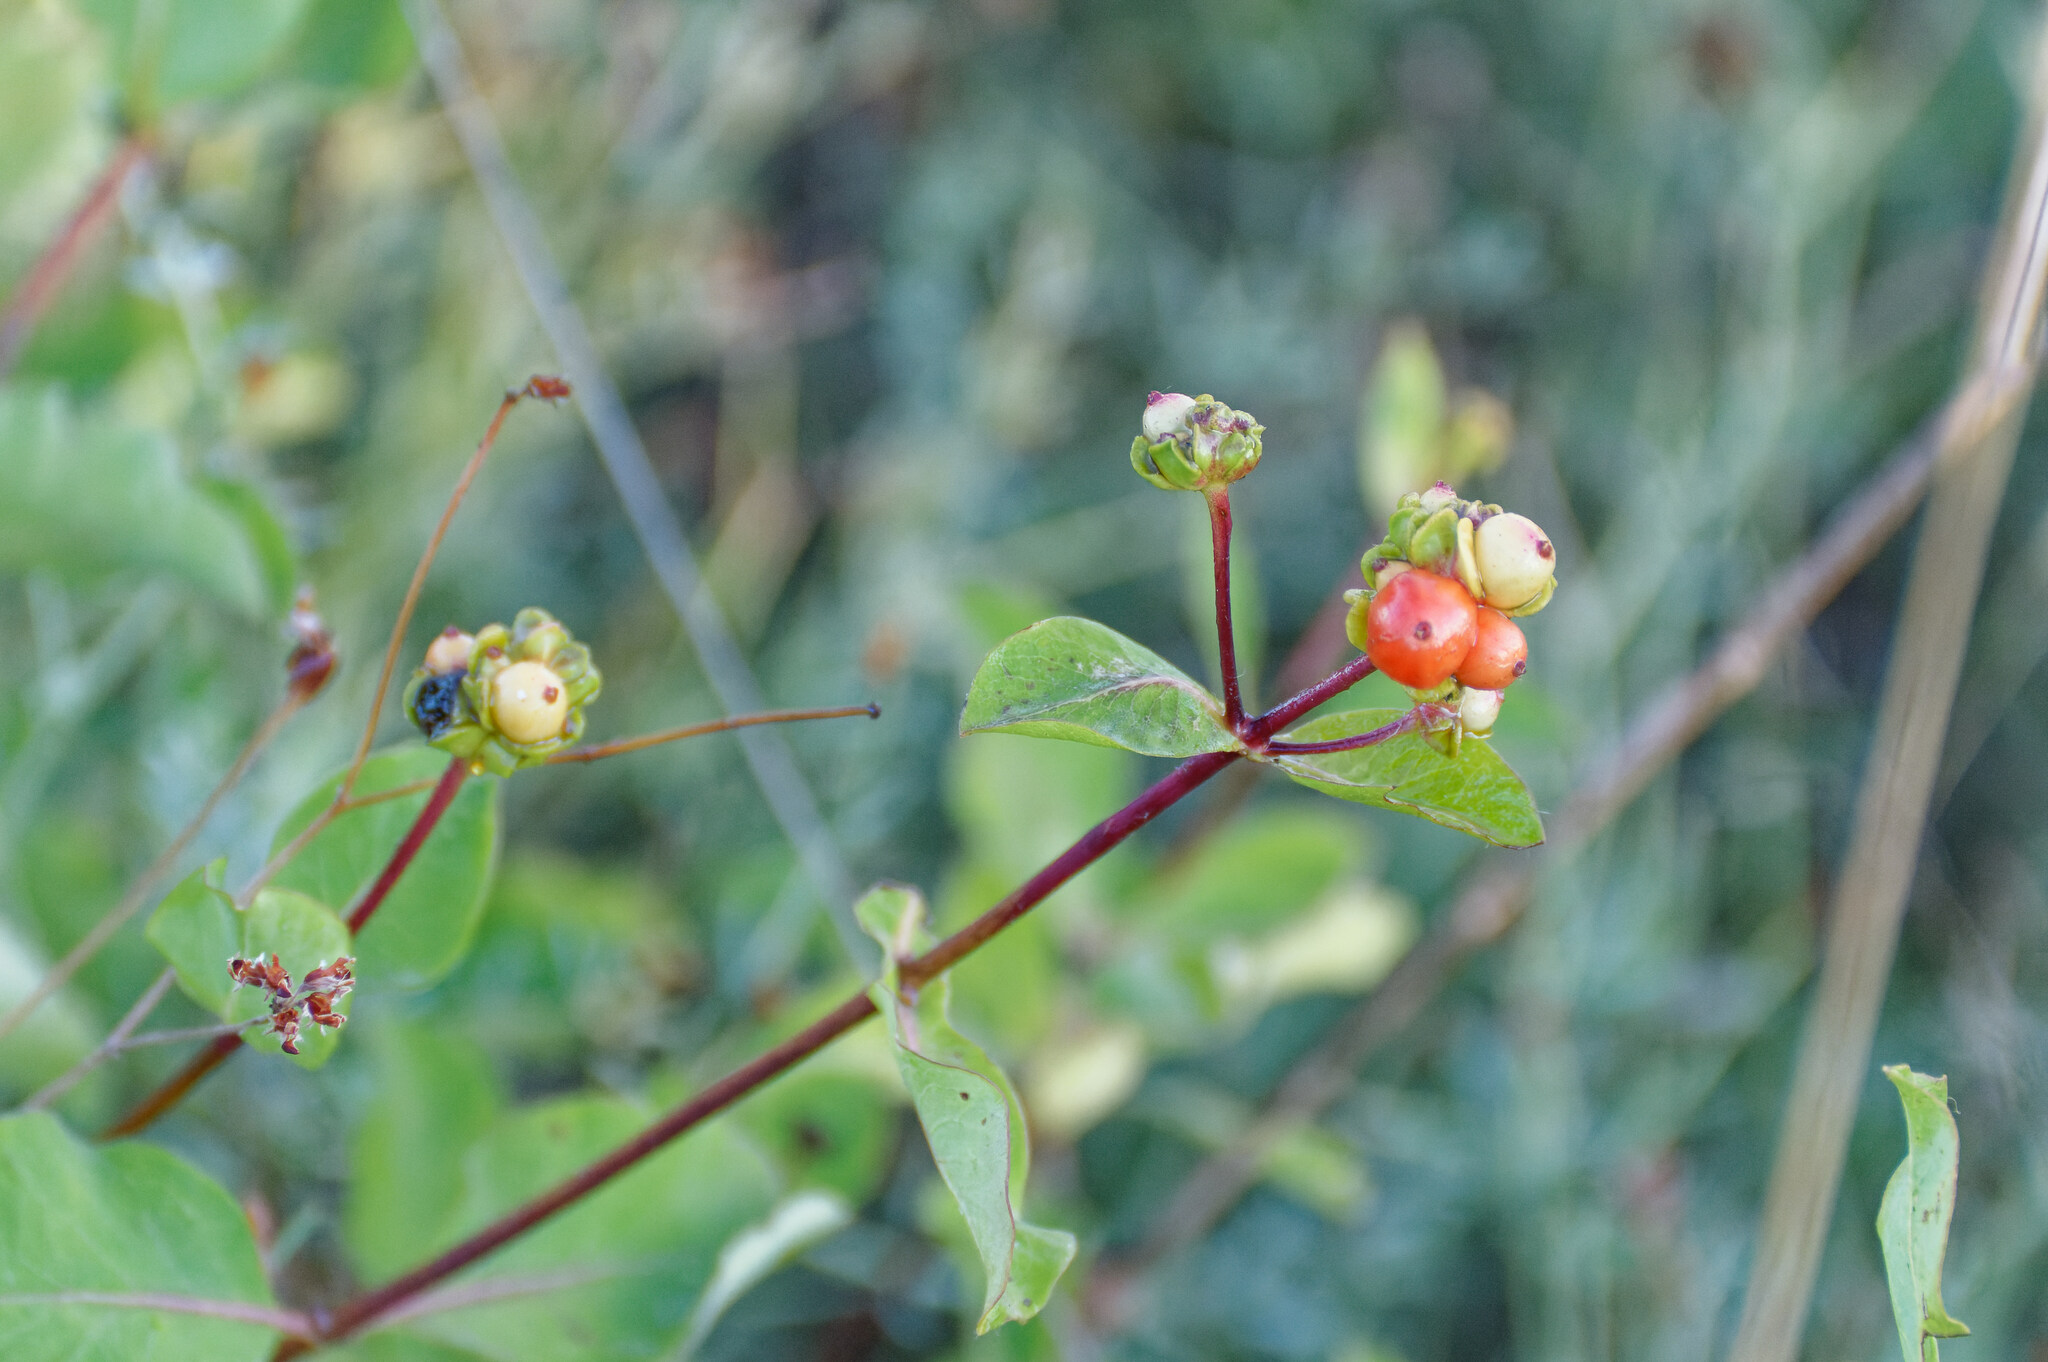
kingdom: Plantae
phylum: Tracheophyta
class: Magnoliopsida
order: Dipsacales
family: Caprifoliaceae
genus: Lonicera
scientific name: Lonicera etrusca
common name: Etruscan honeysuckle
